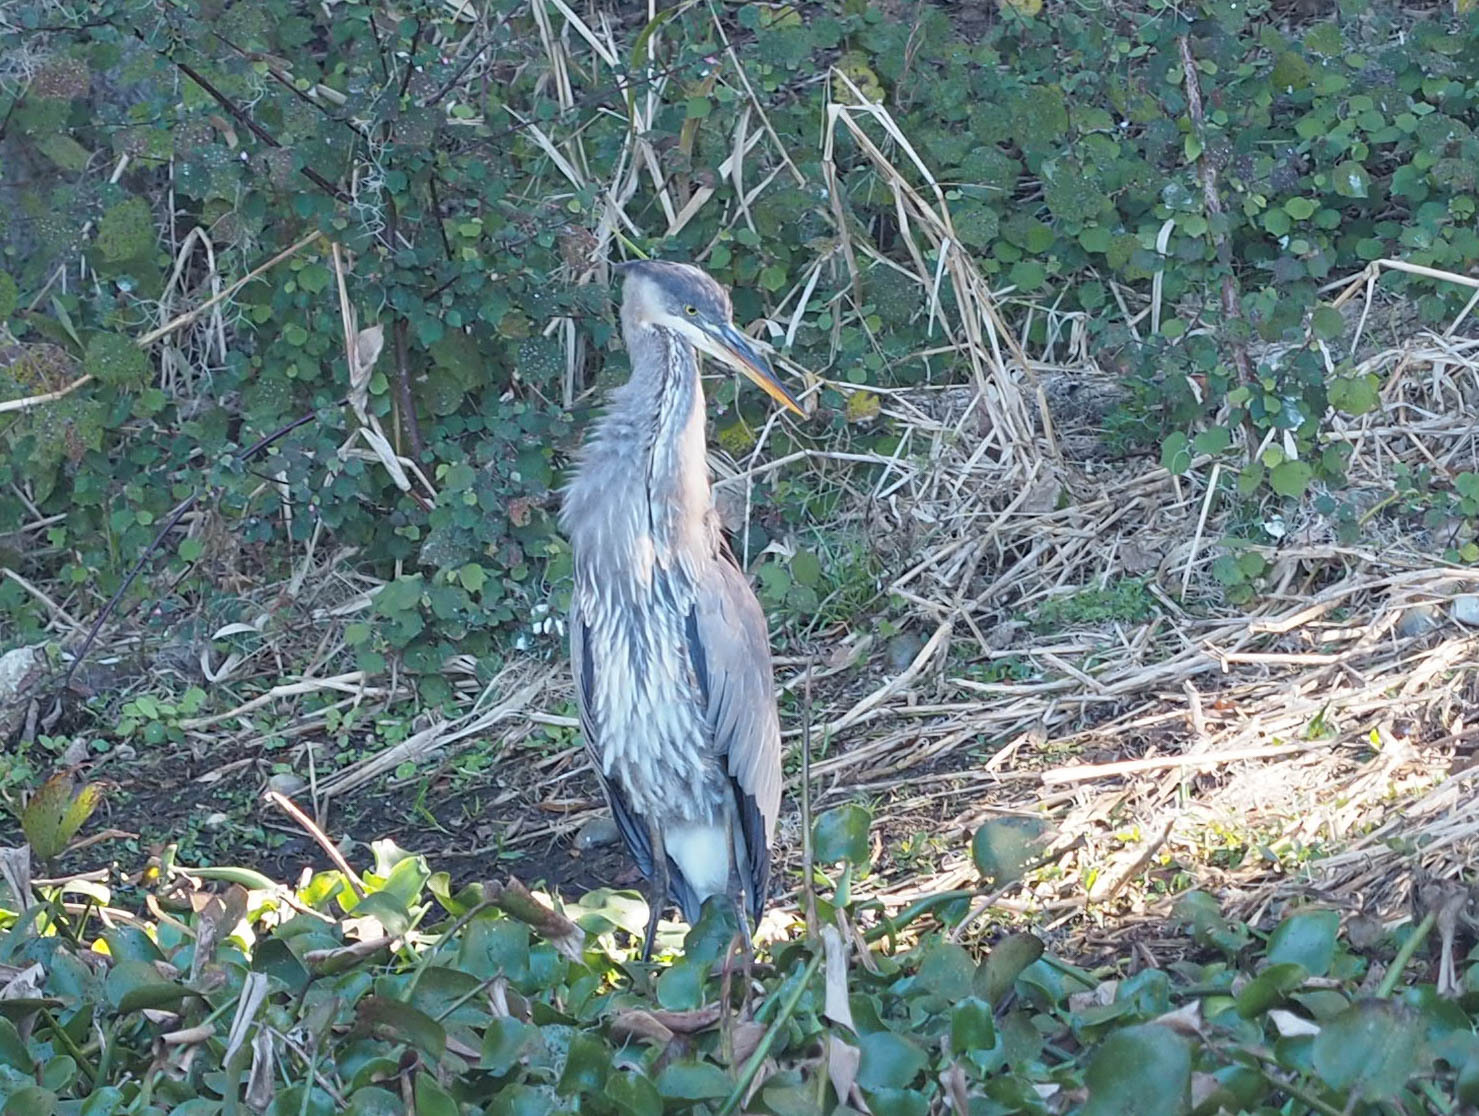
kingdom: Animalia
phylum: Chordata
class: Aves
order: Pelecaniformes
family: Ardeidae
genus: Ardea
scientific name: Ardea herodias
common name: Great blue heron
